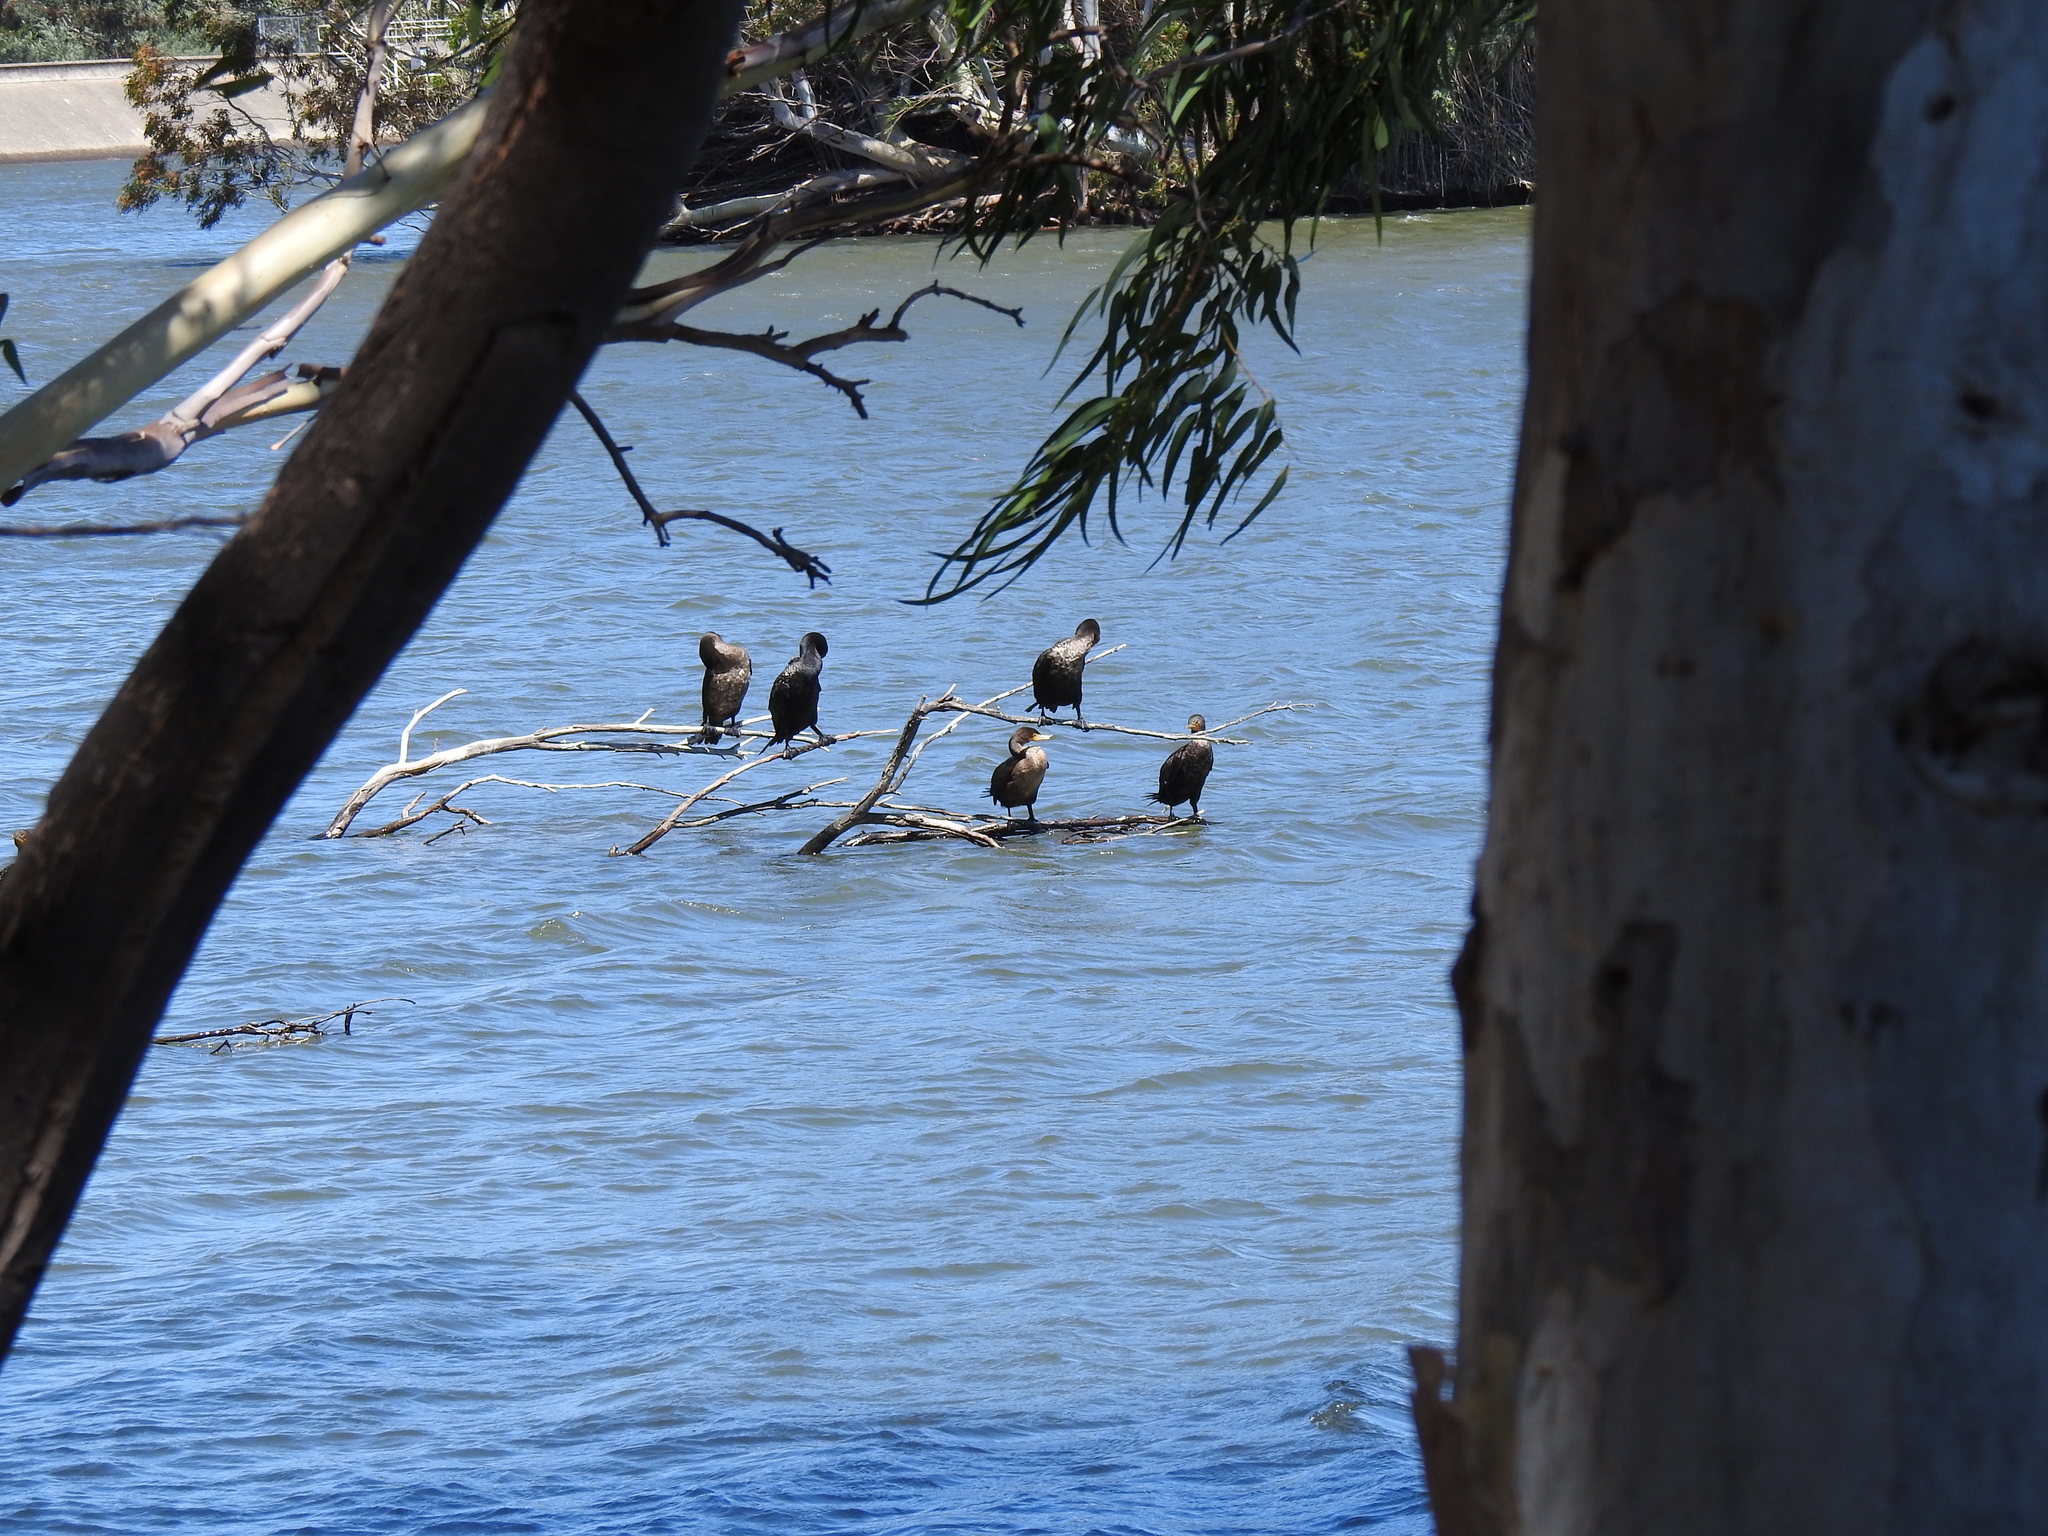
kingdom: Animalia
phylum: Chordata
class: Aves
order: Suliformes
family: Phalacrocoracidae
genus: Phalacrocorax
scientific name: Phalacrocorax auritus
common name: Double-crested cormorant
